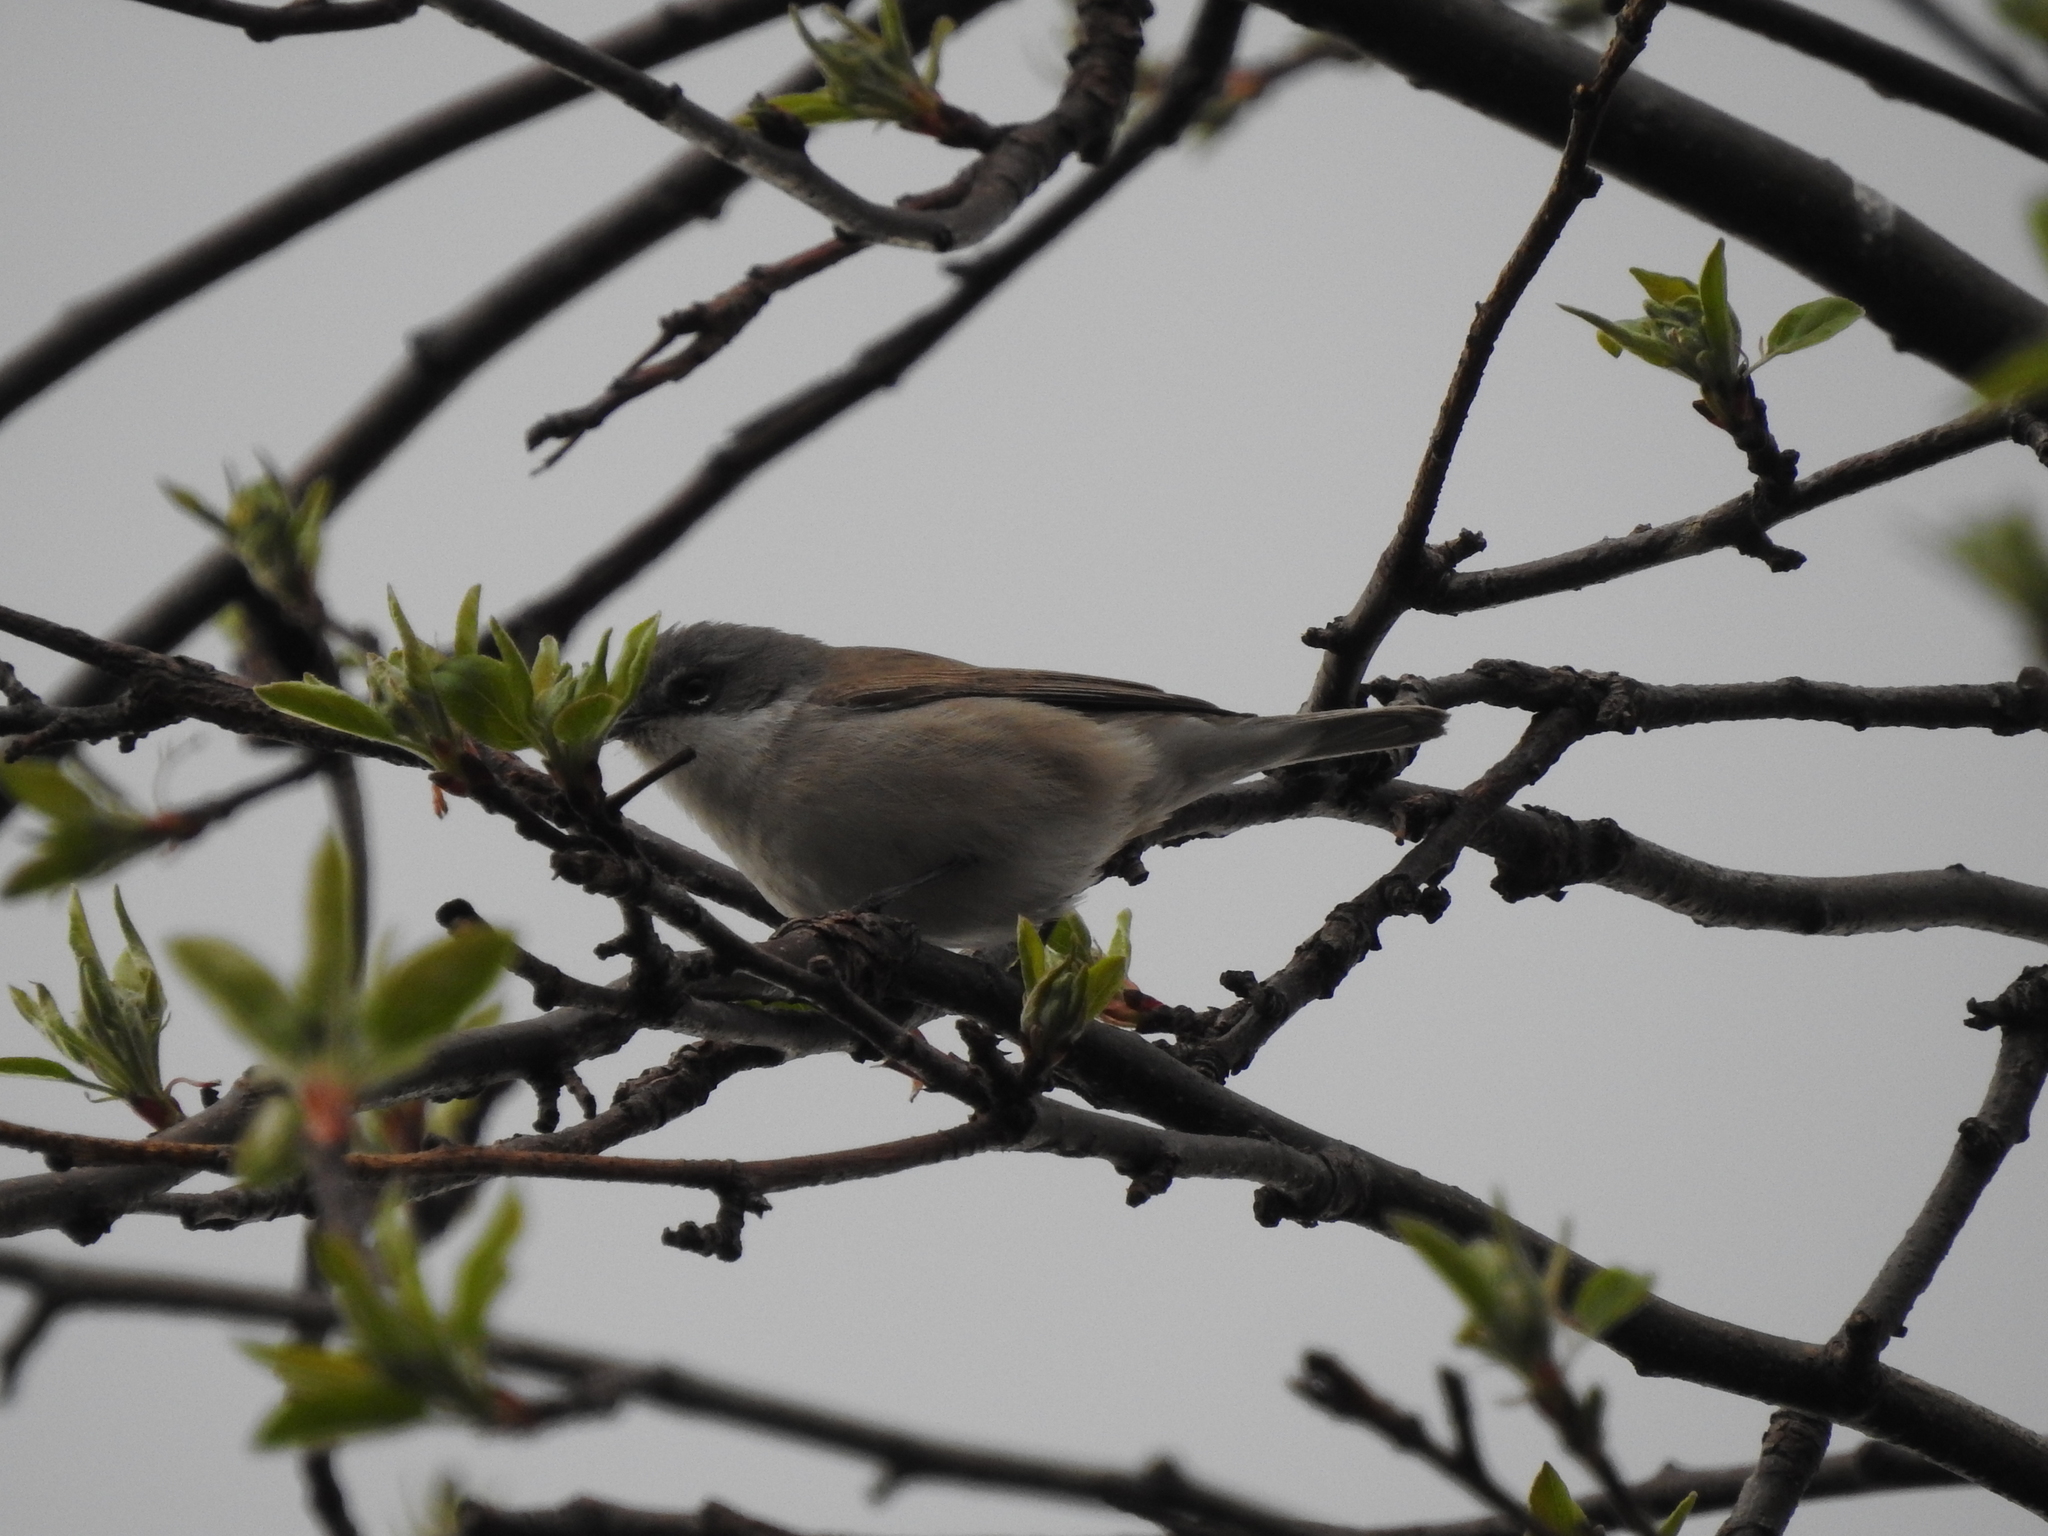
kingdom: Animalia
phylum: Chordata
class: Aves
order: Passeriformes
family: Sylviidae
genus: Sylvia
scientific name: Sylvia curruca
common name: Lesser whitethroat
